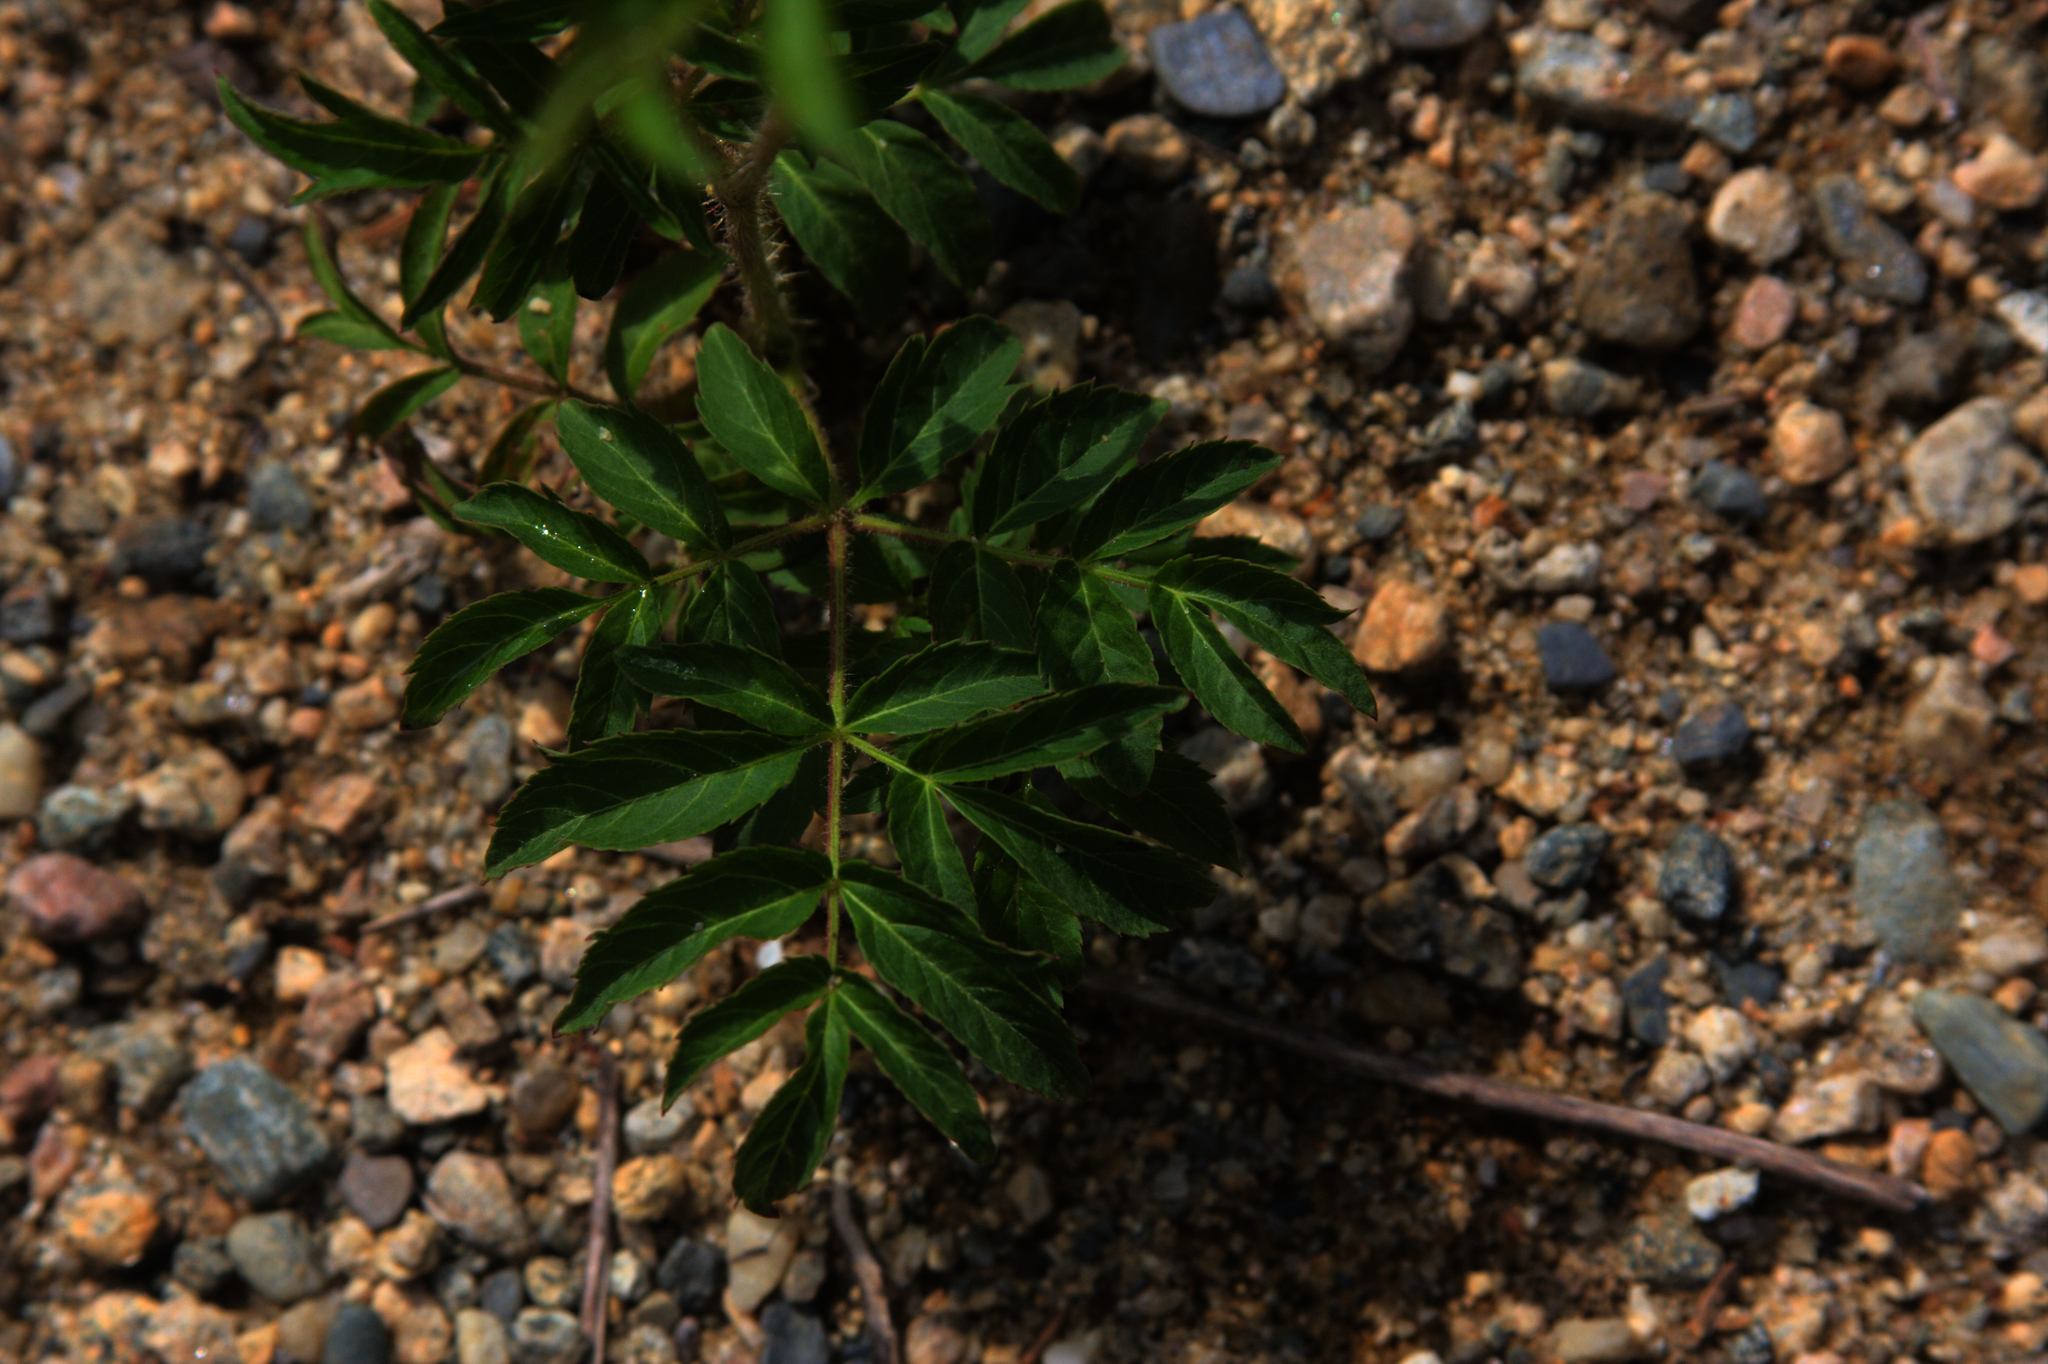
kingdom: Plantae
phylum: Tracheophyta
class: Magnoliopsida
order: Apiales
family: Araliaceae
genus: Aralia
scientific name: Aralia hispida
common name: Bristly sarsaparilla
